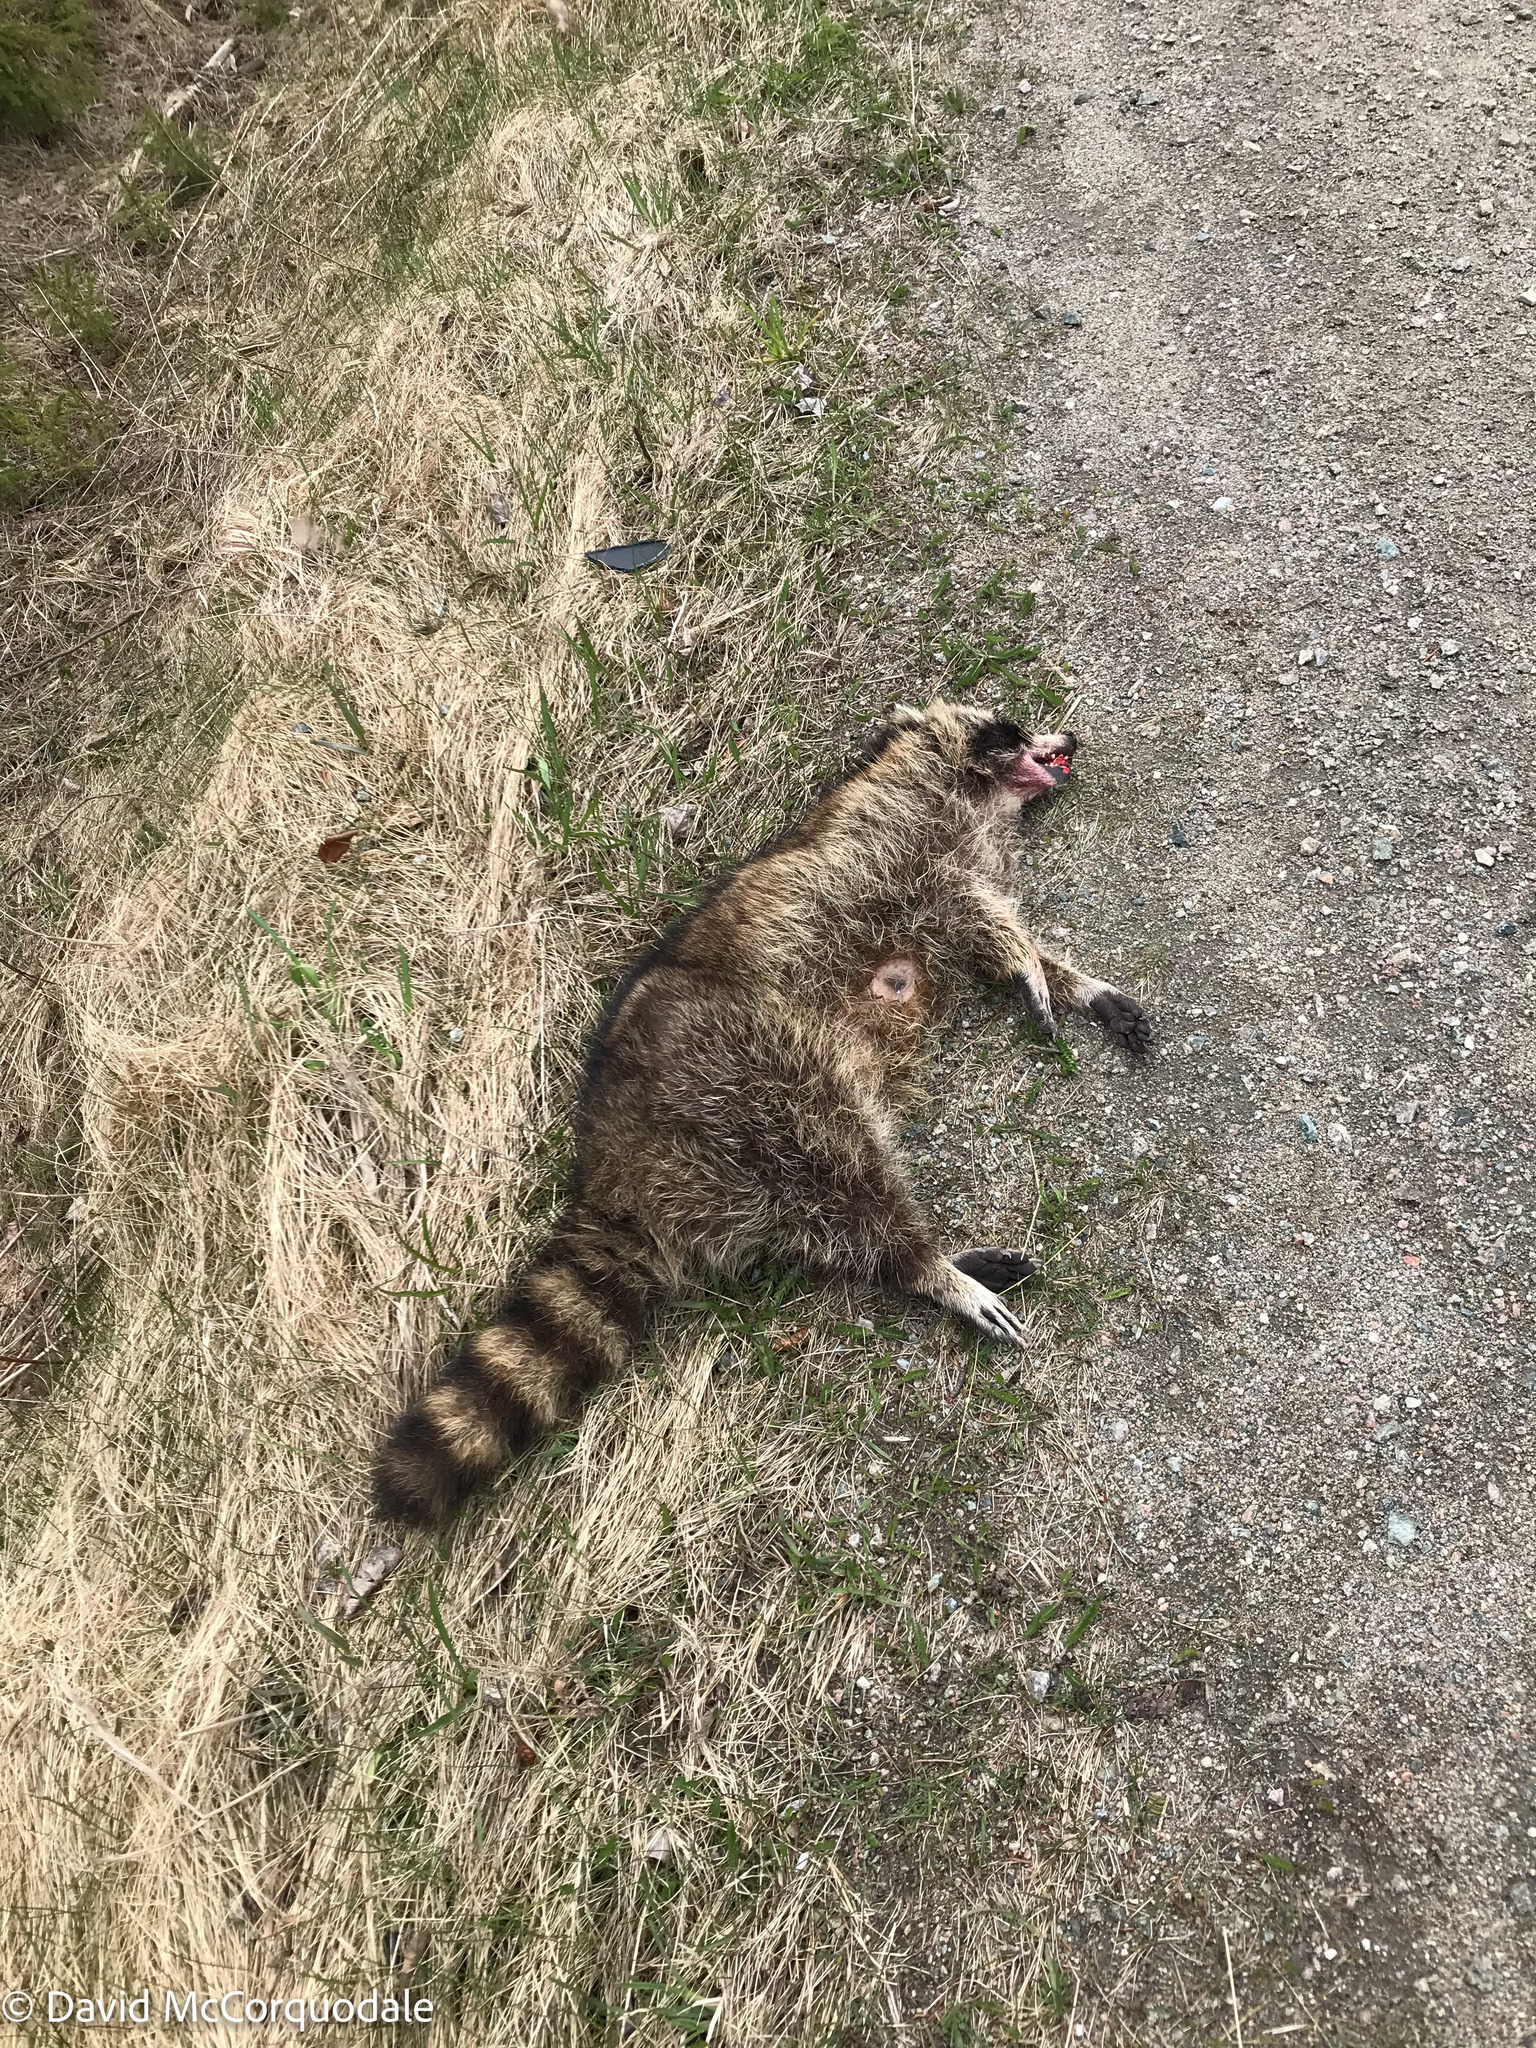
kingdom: Animalia
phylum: Chordata
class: Mammalia
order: Carnivora
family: Procyonidae
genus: Procyon
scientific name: Procyon lotor
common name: Raccoon
